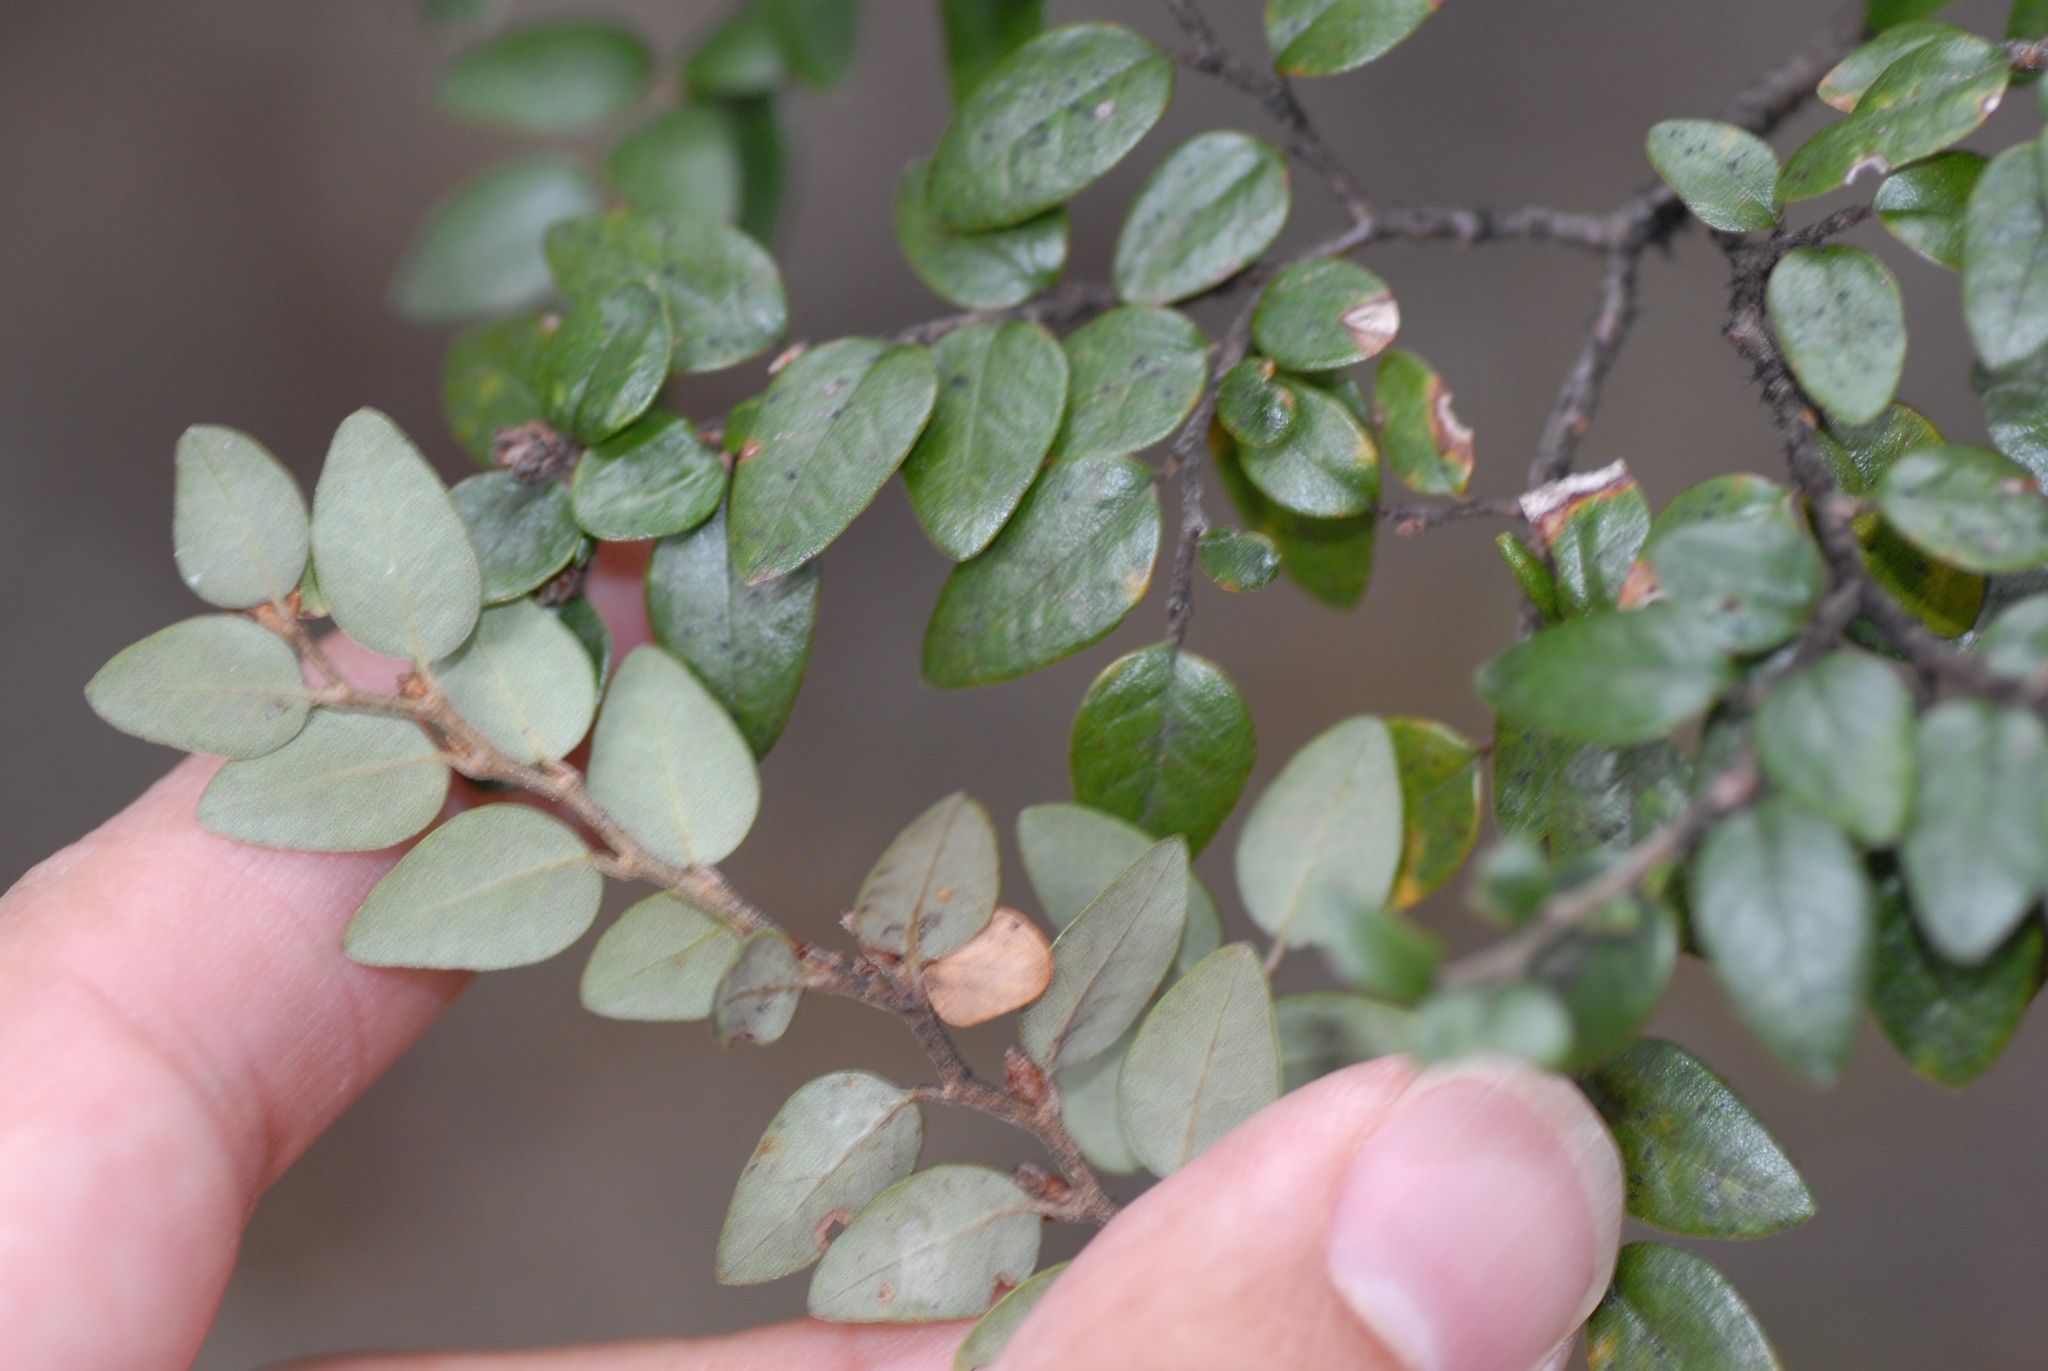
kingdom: Plantae
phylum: Tracheophyta
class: Magnoliopsida
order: Fagales
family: Nothofagaceae
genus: Nothofagus
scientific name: Nothofagus cliffortioides
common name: Mountain beech
